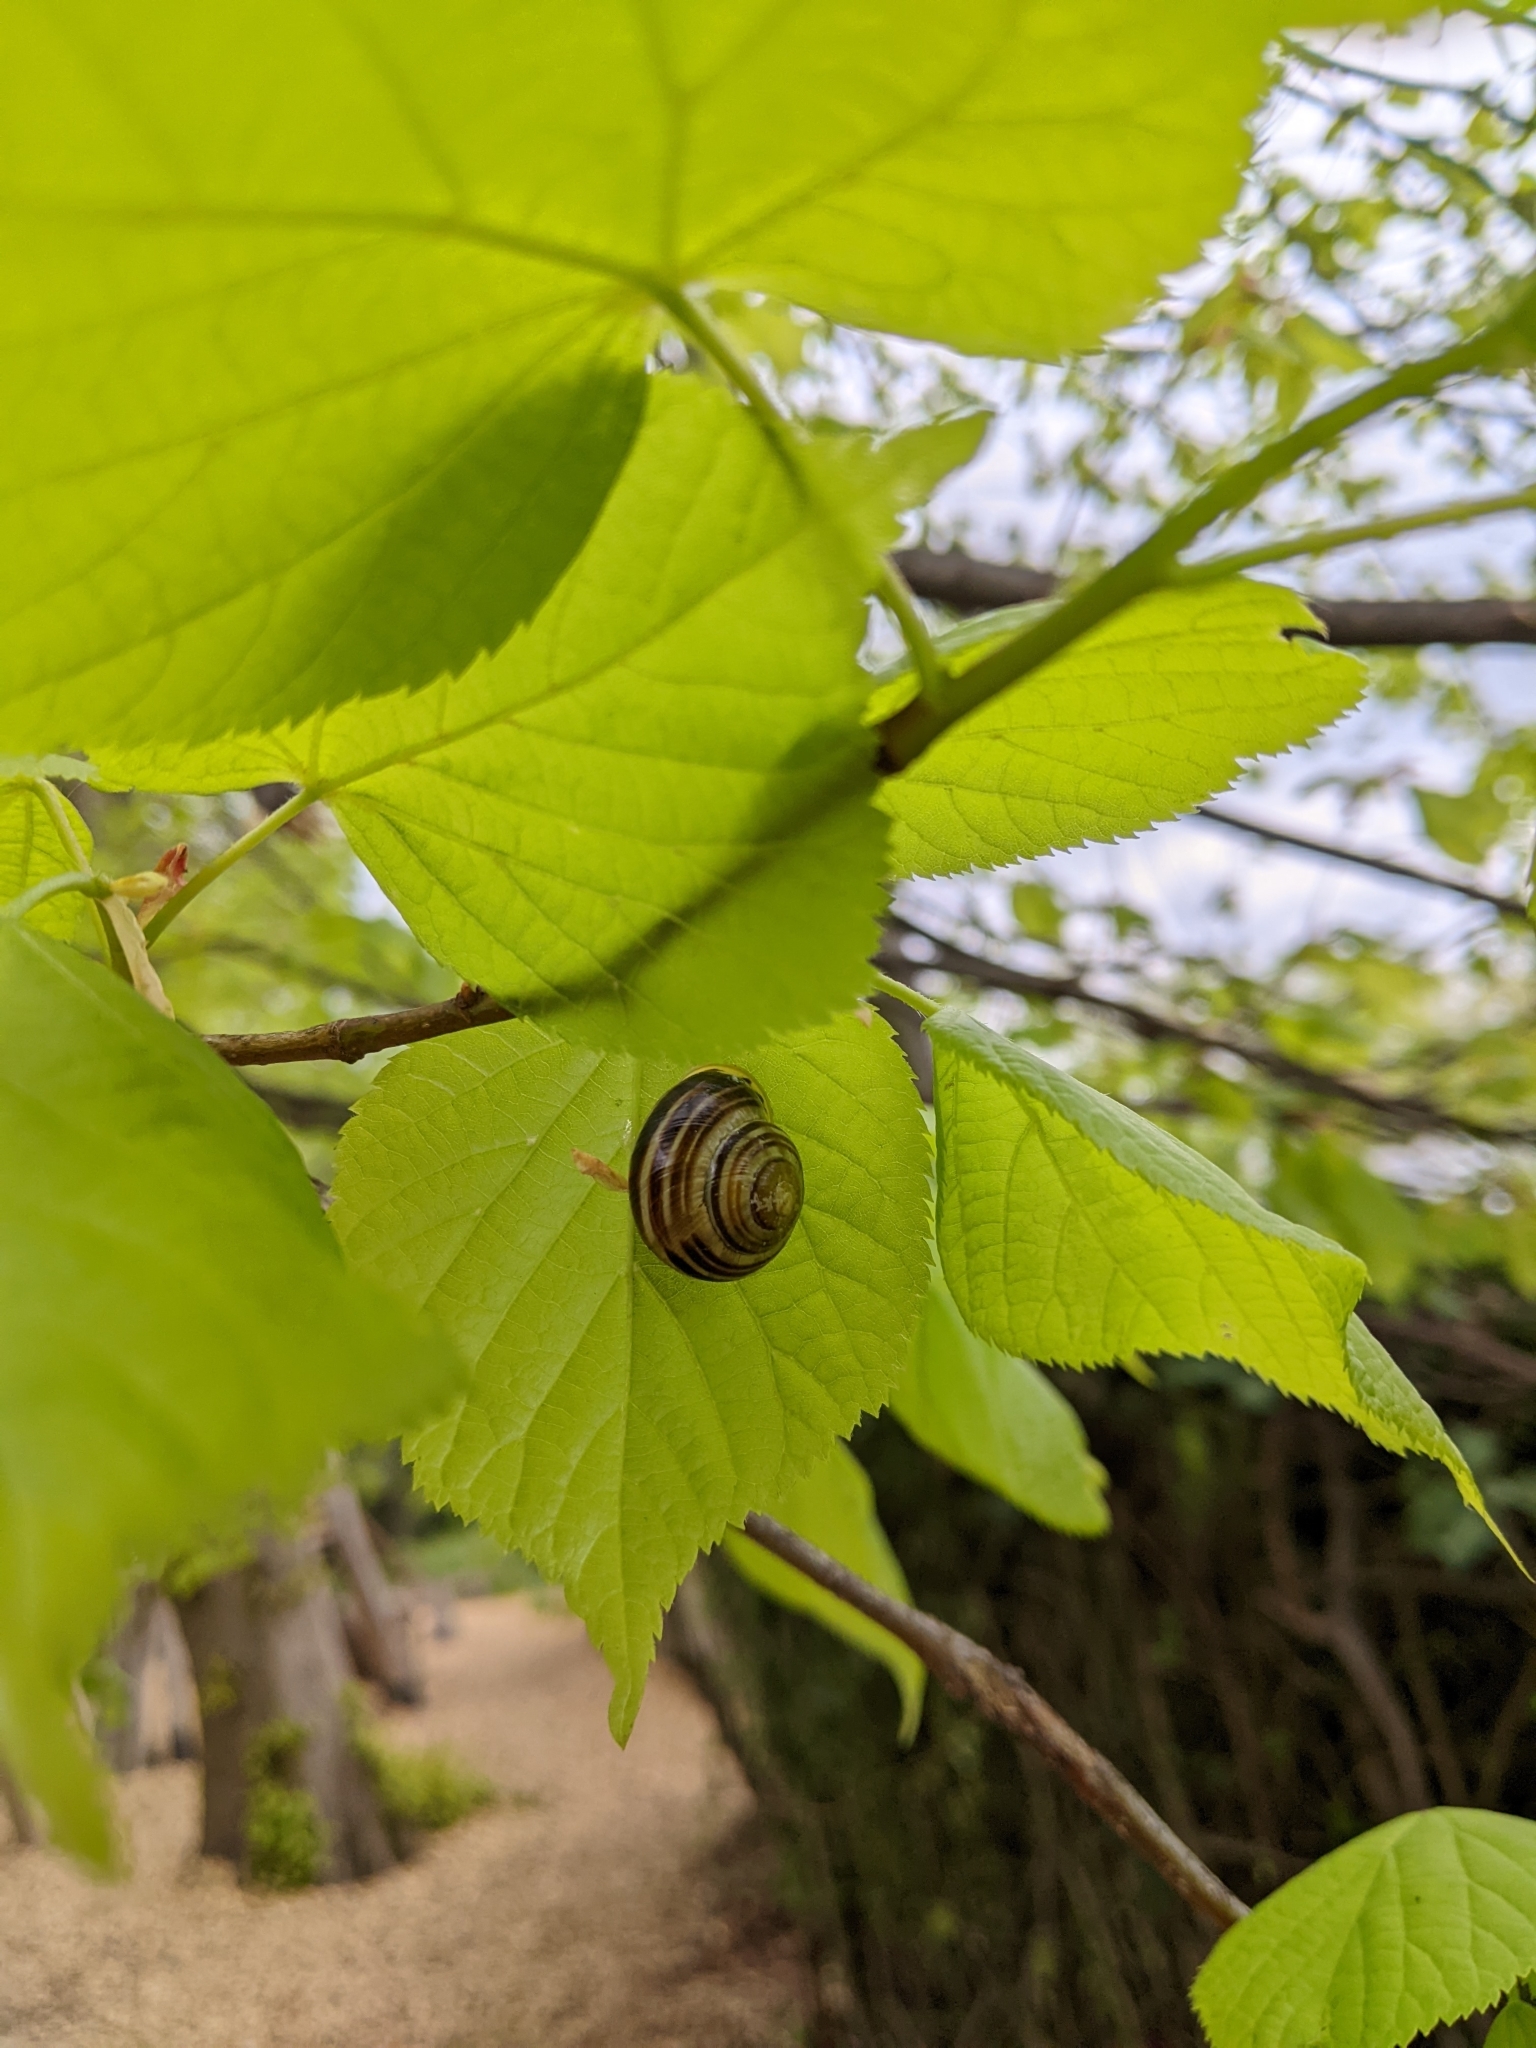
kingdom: Animalia
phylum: Mollusca
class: Gastropoda
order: Stylommatophora
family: Helicidae
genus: Cepaea
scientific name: Cepaea hortensis
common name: White-lip gardensnail
